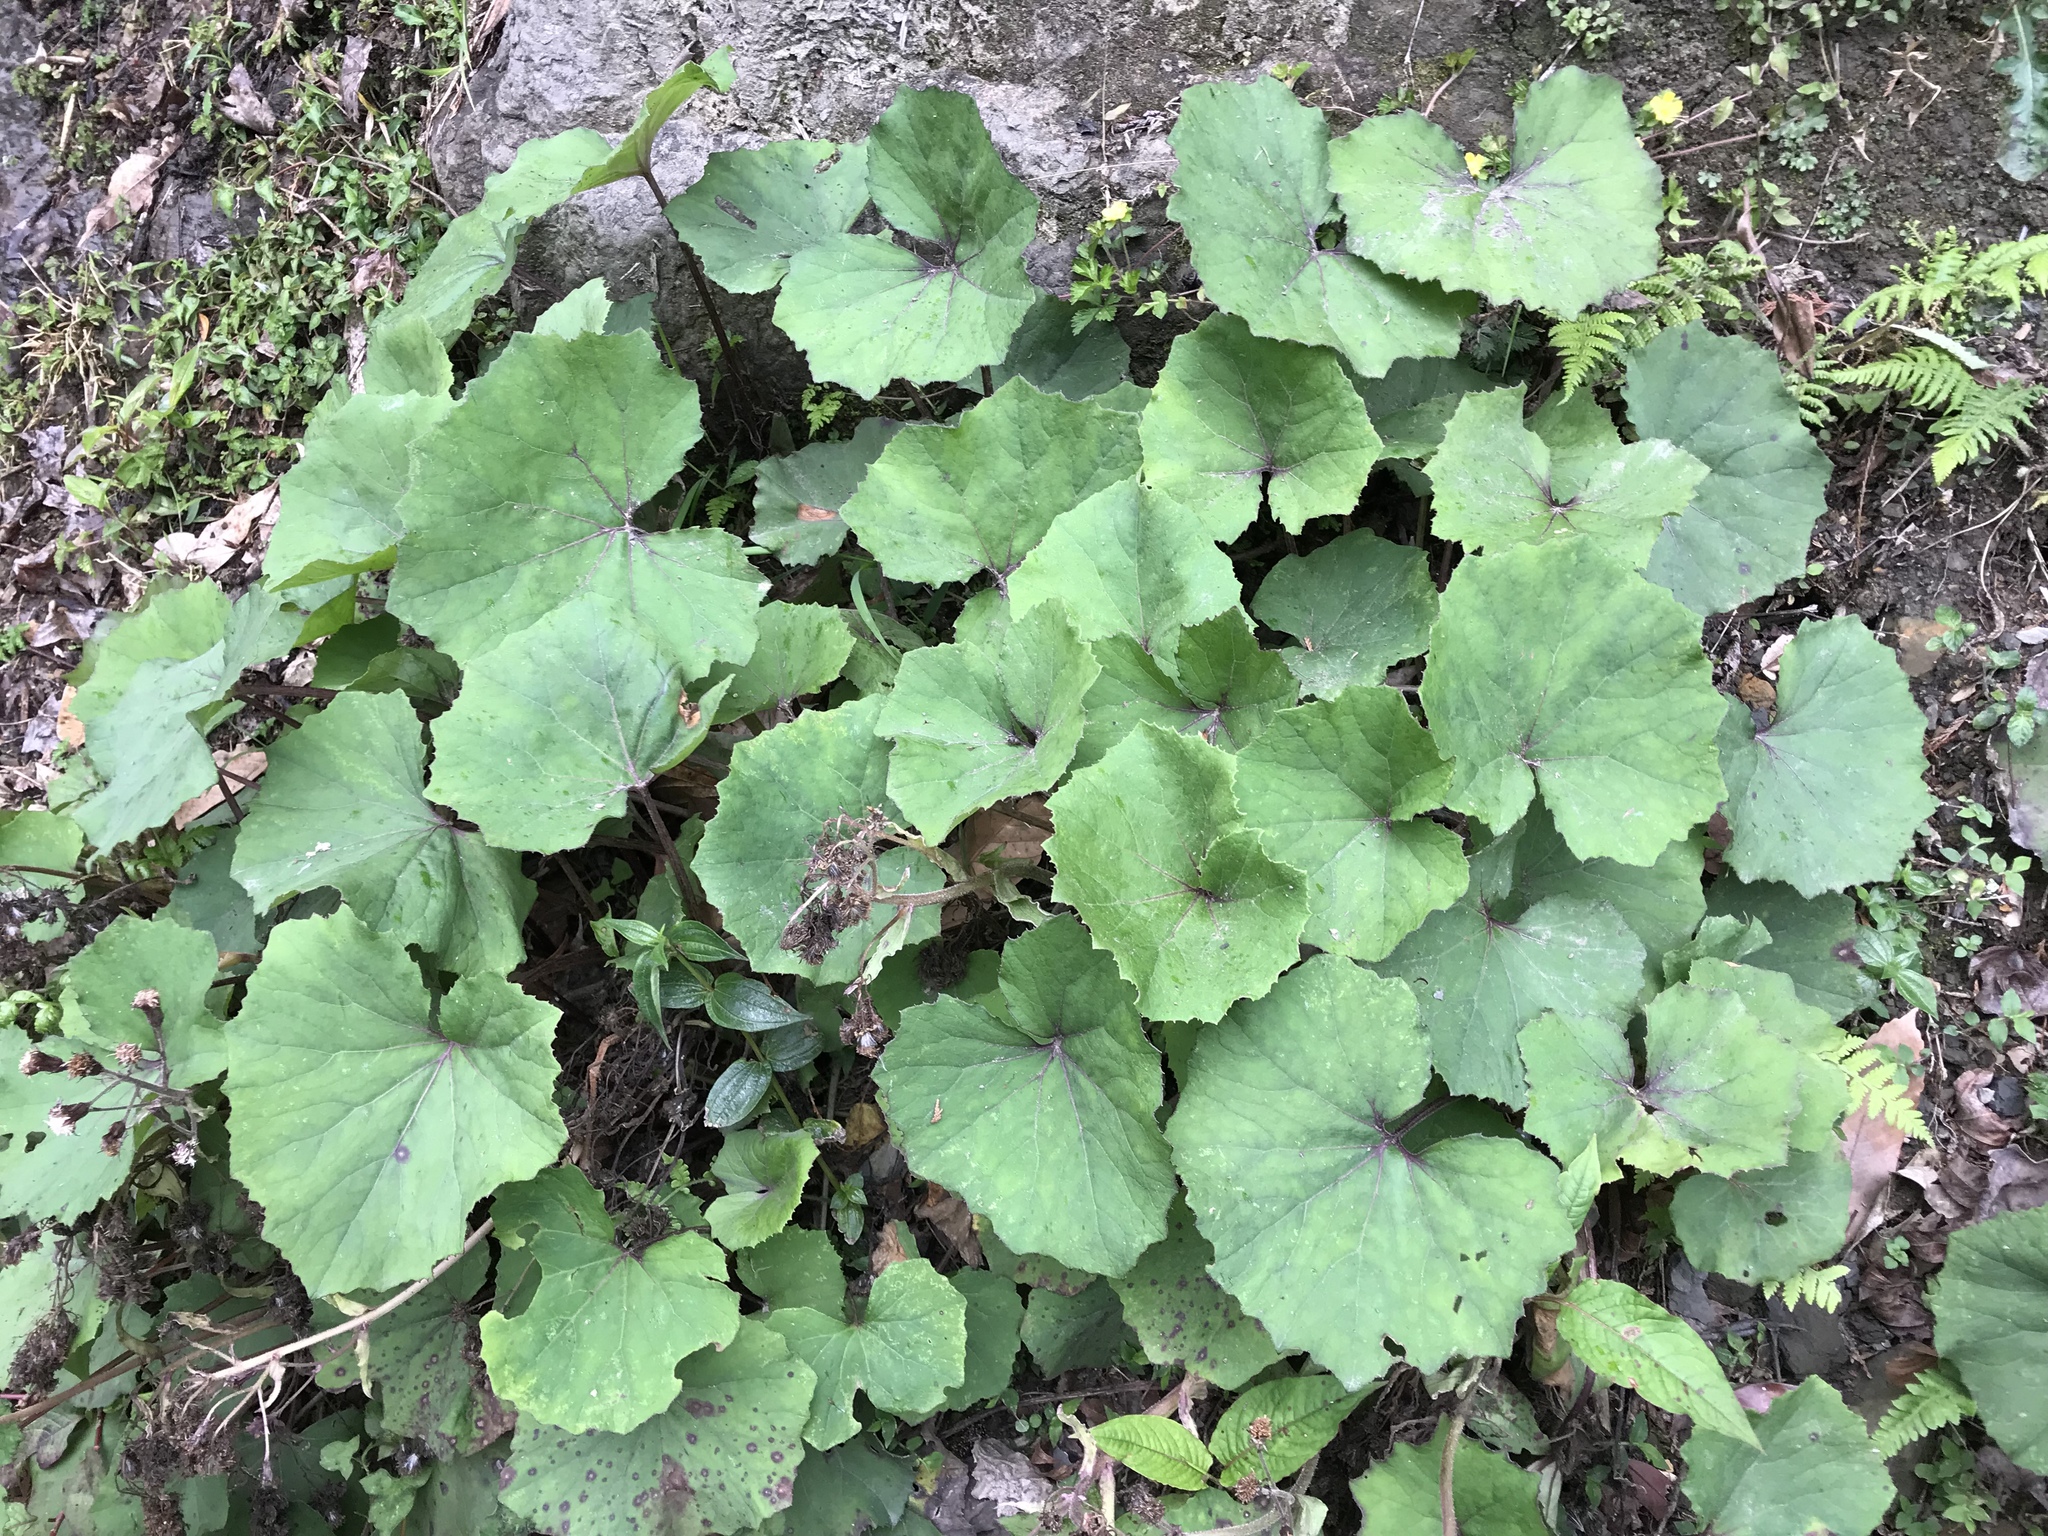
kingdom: Plantae
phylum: Tracheophyta
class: Magnoliopsida
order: Asterales
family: Asteraceae
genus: Petasites
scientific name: Petasites formosanus
